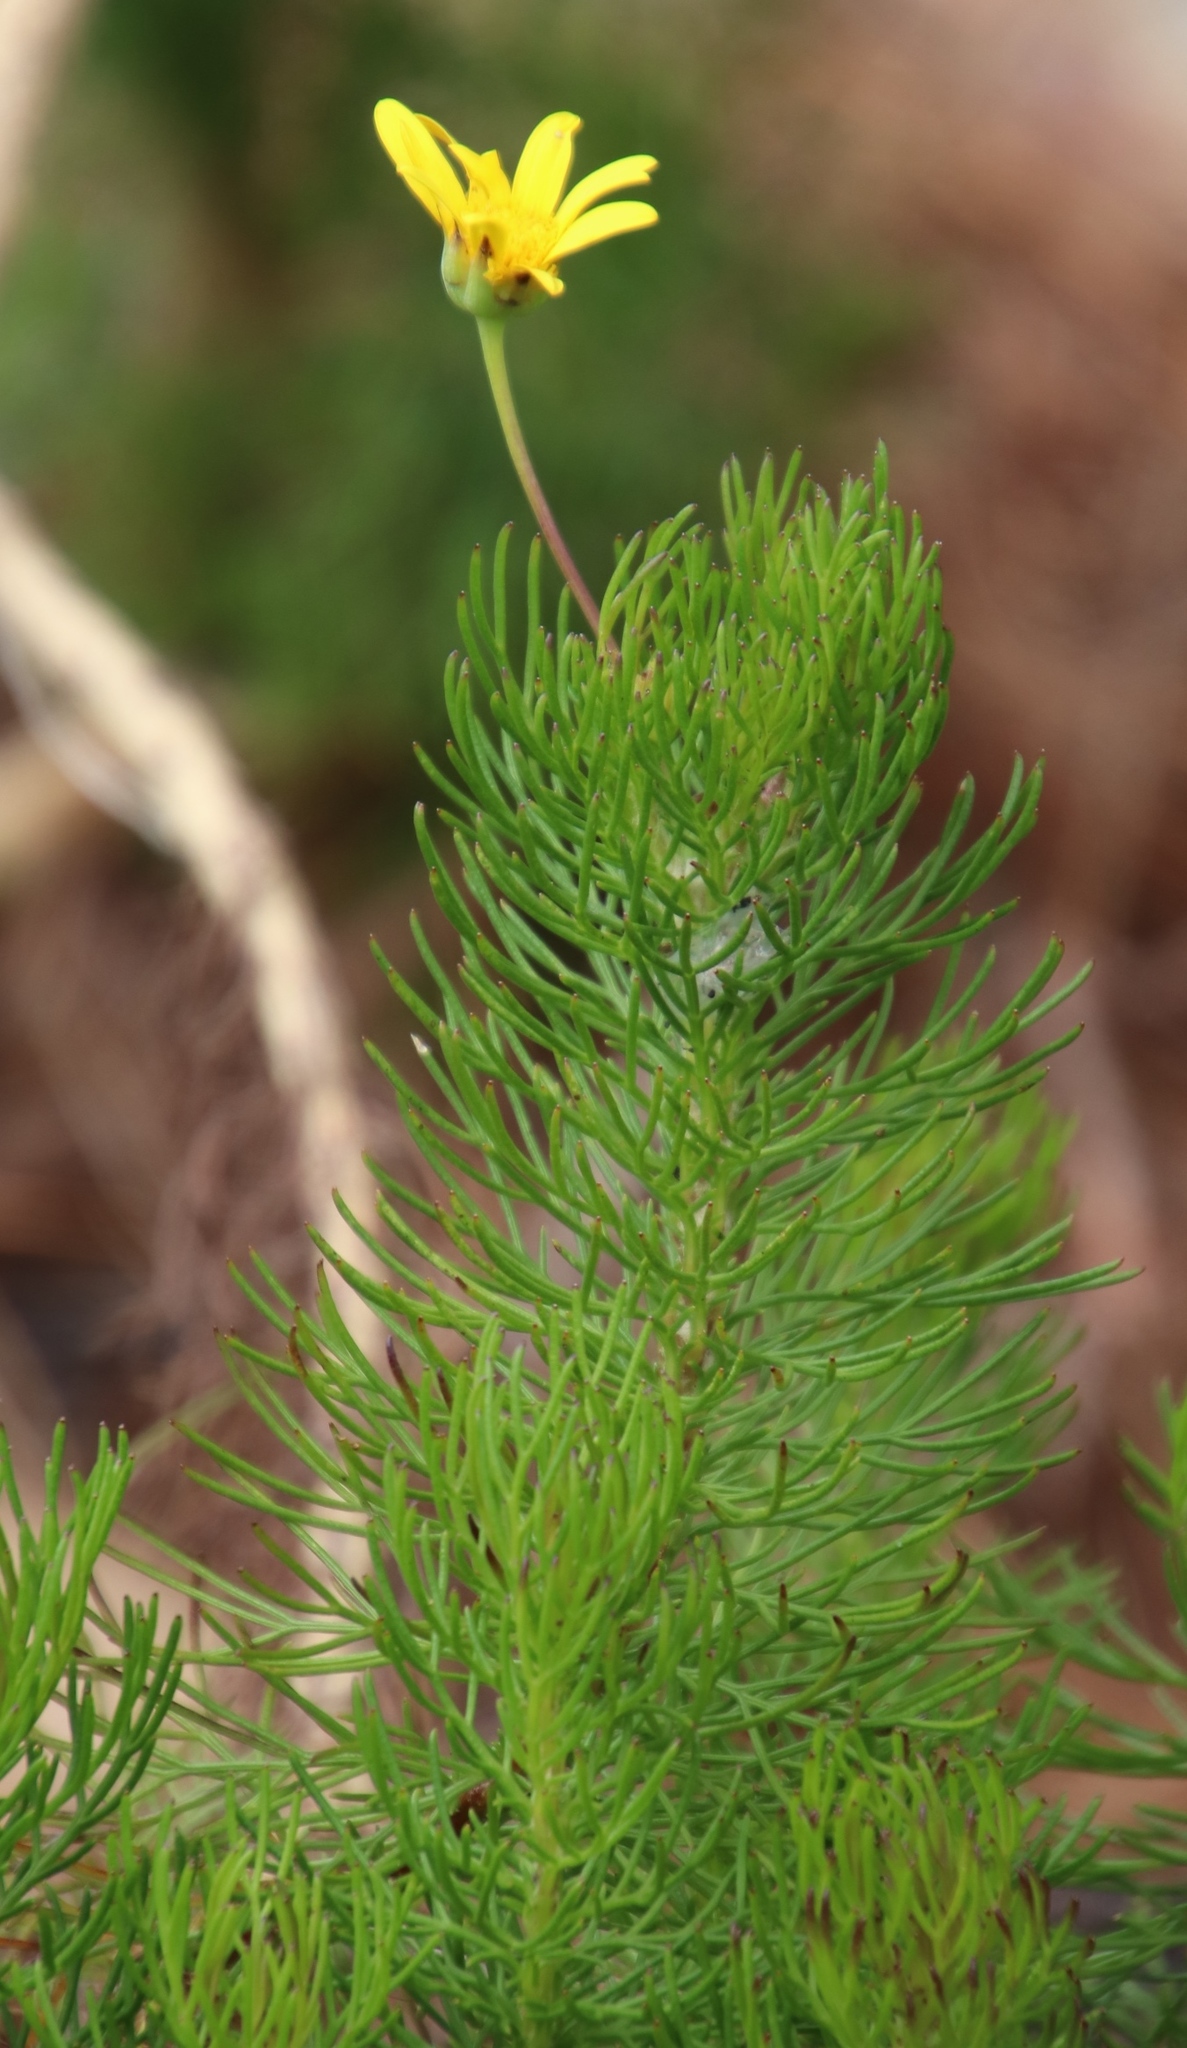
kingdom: Plantae
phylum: Tracheophyta
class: Magnoliopsida
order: Asterales
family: Asteraceae
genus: Euryops
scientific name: Euryops abrotanifolius
